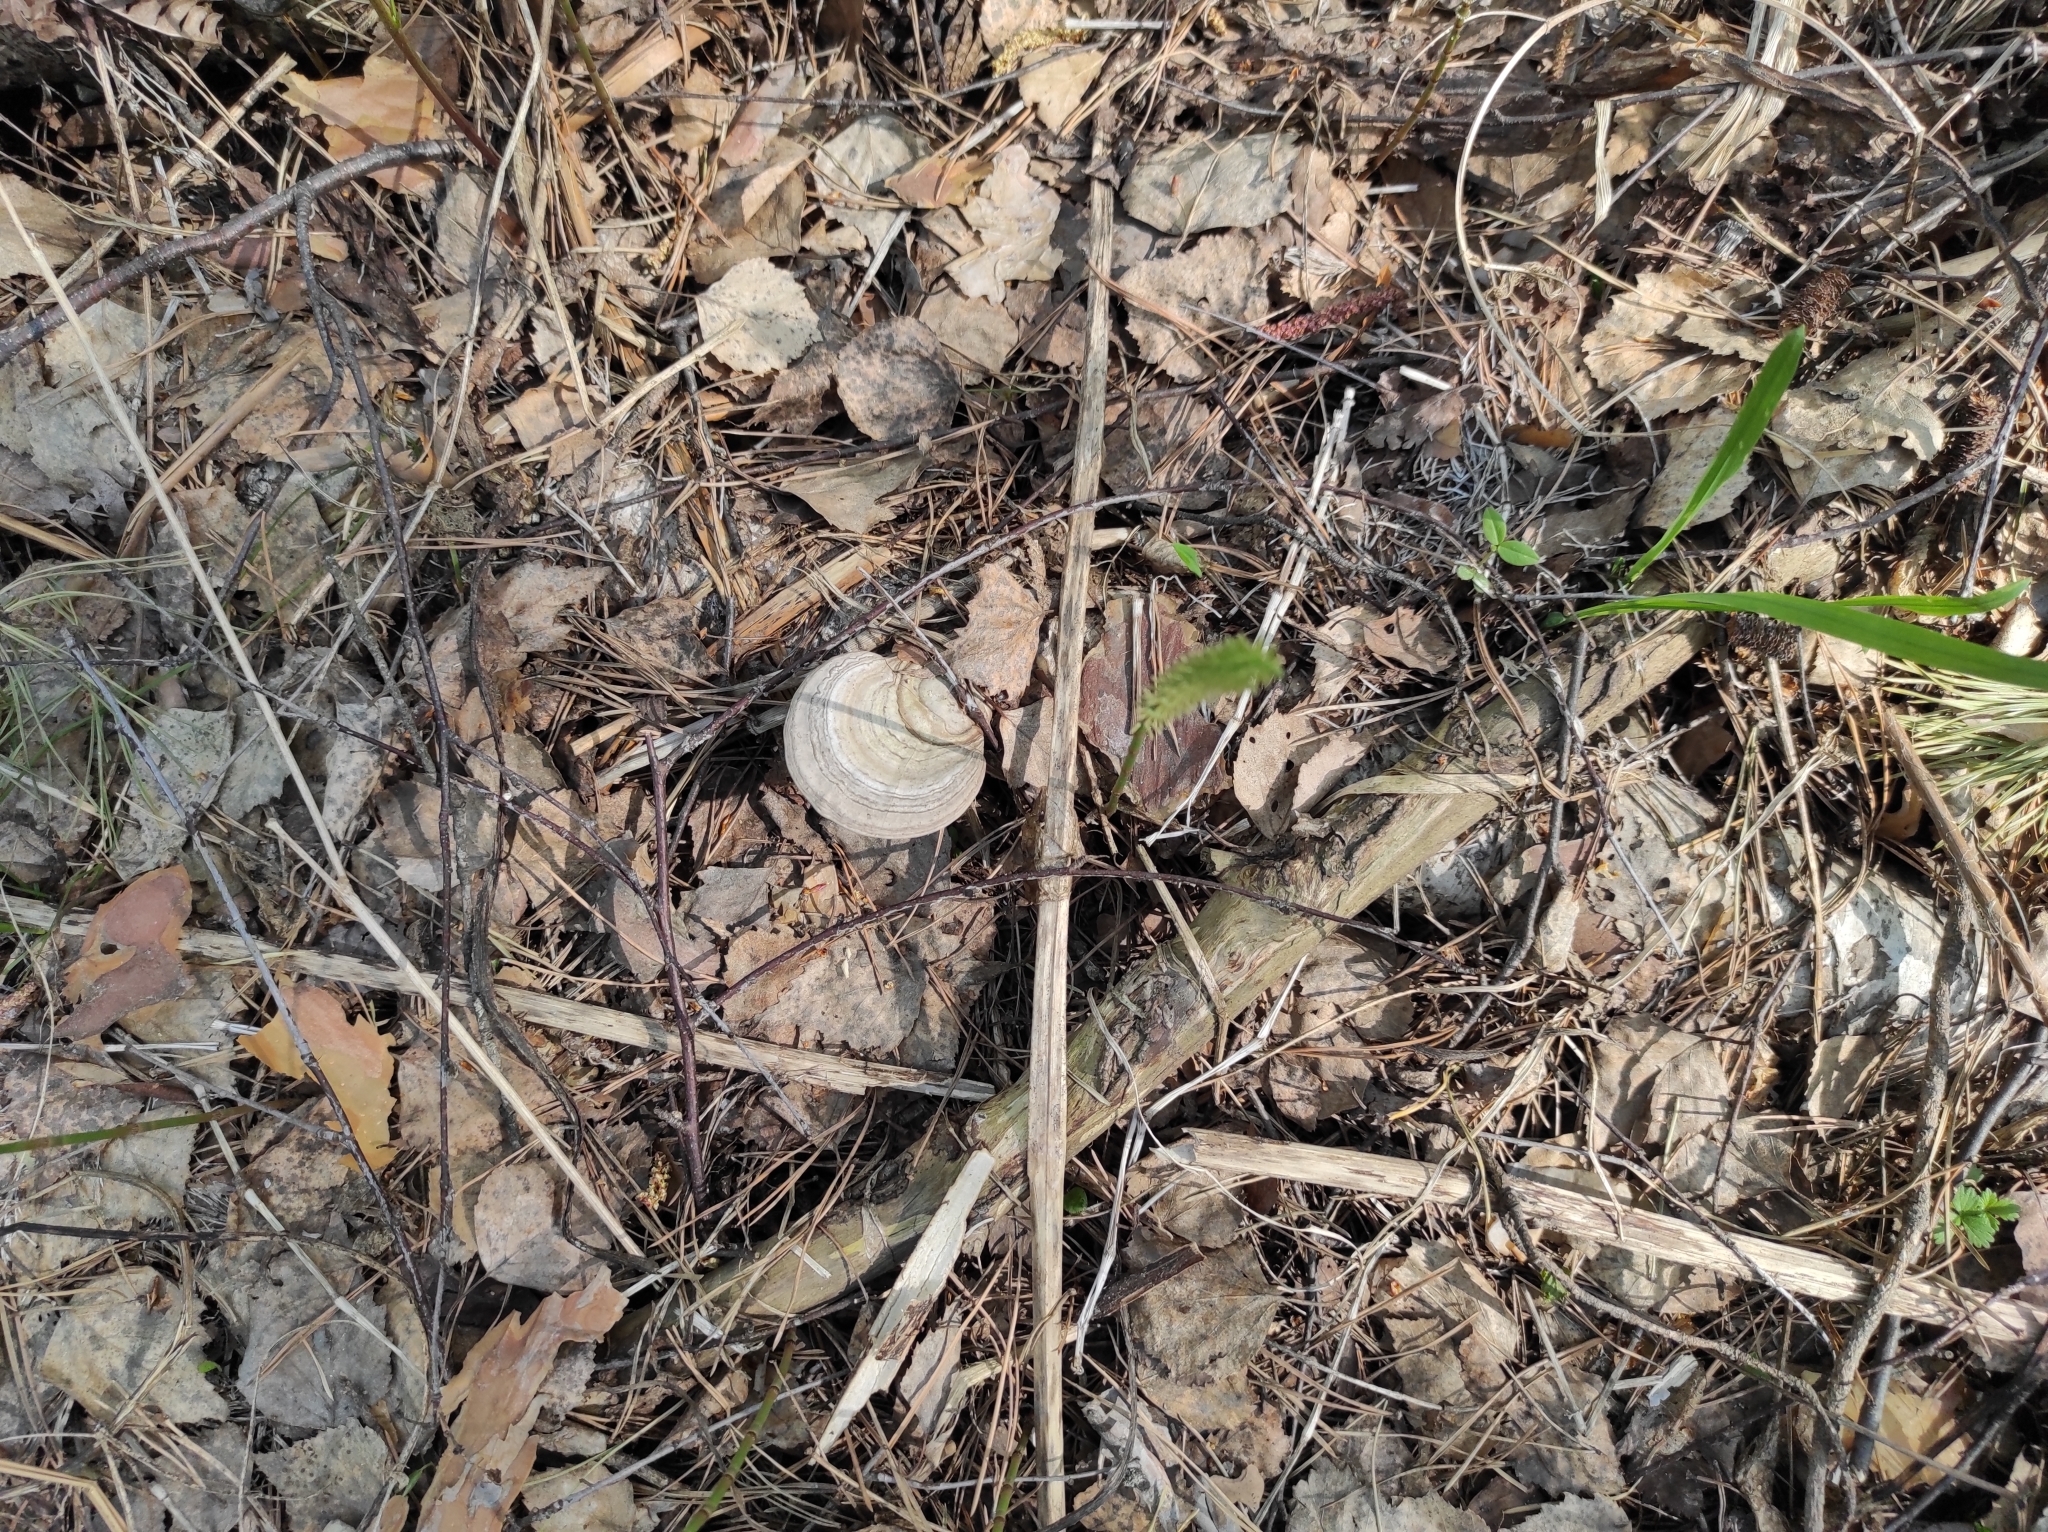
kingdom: Fungi
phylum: Basidiomycota
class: Agaricomycetes
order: Polyporales
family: Polyporaceae
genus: Fomes
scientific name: Fomes fomentarius
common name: Hoof fungus
